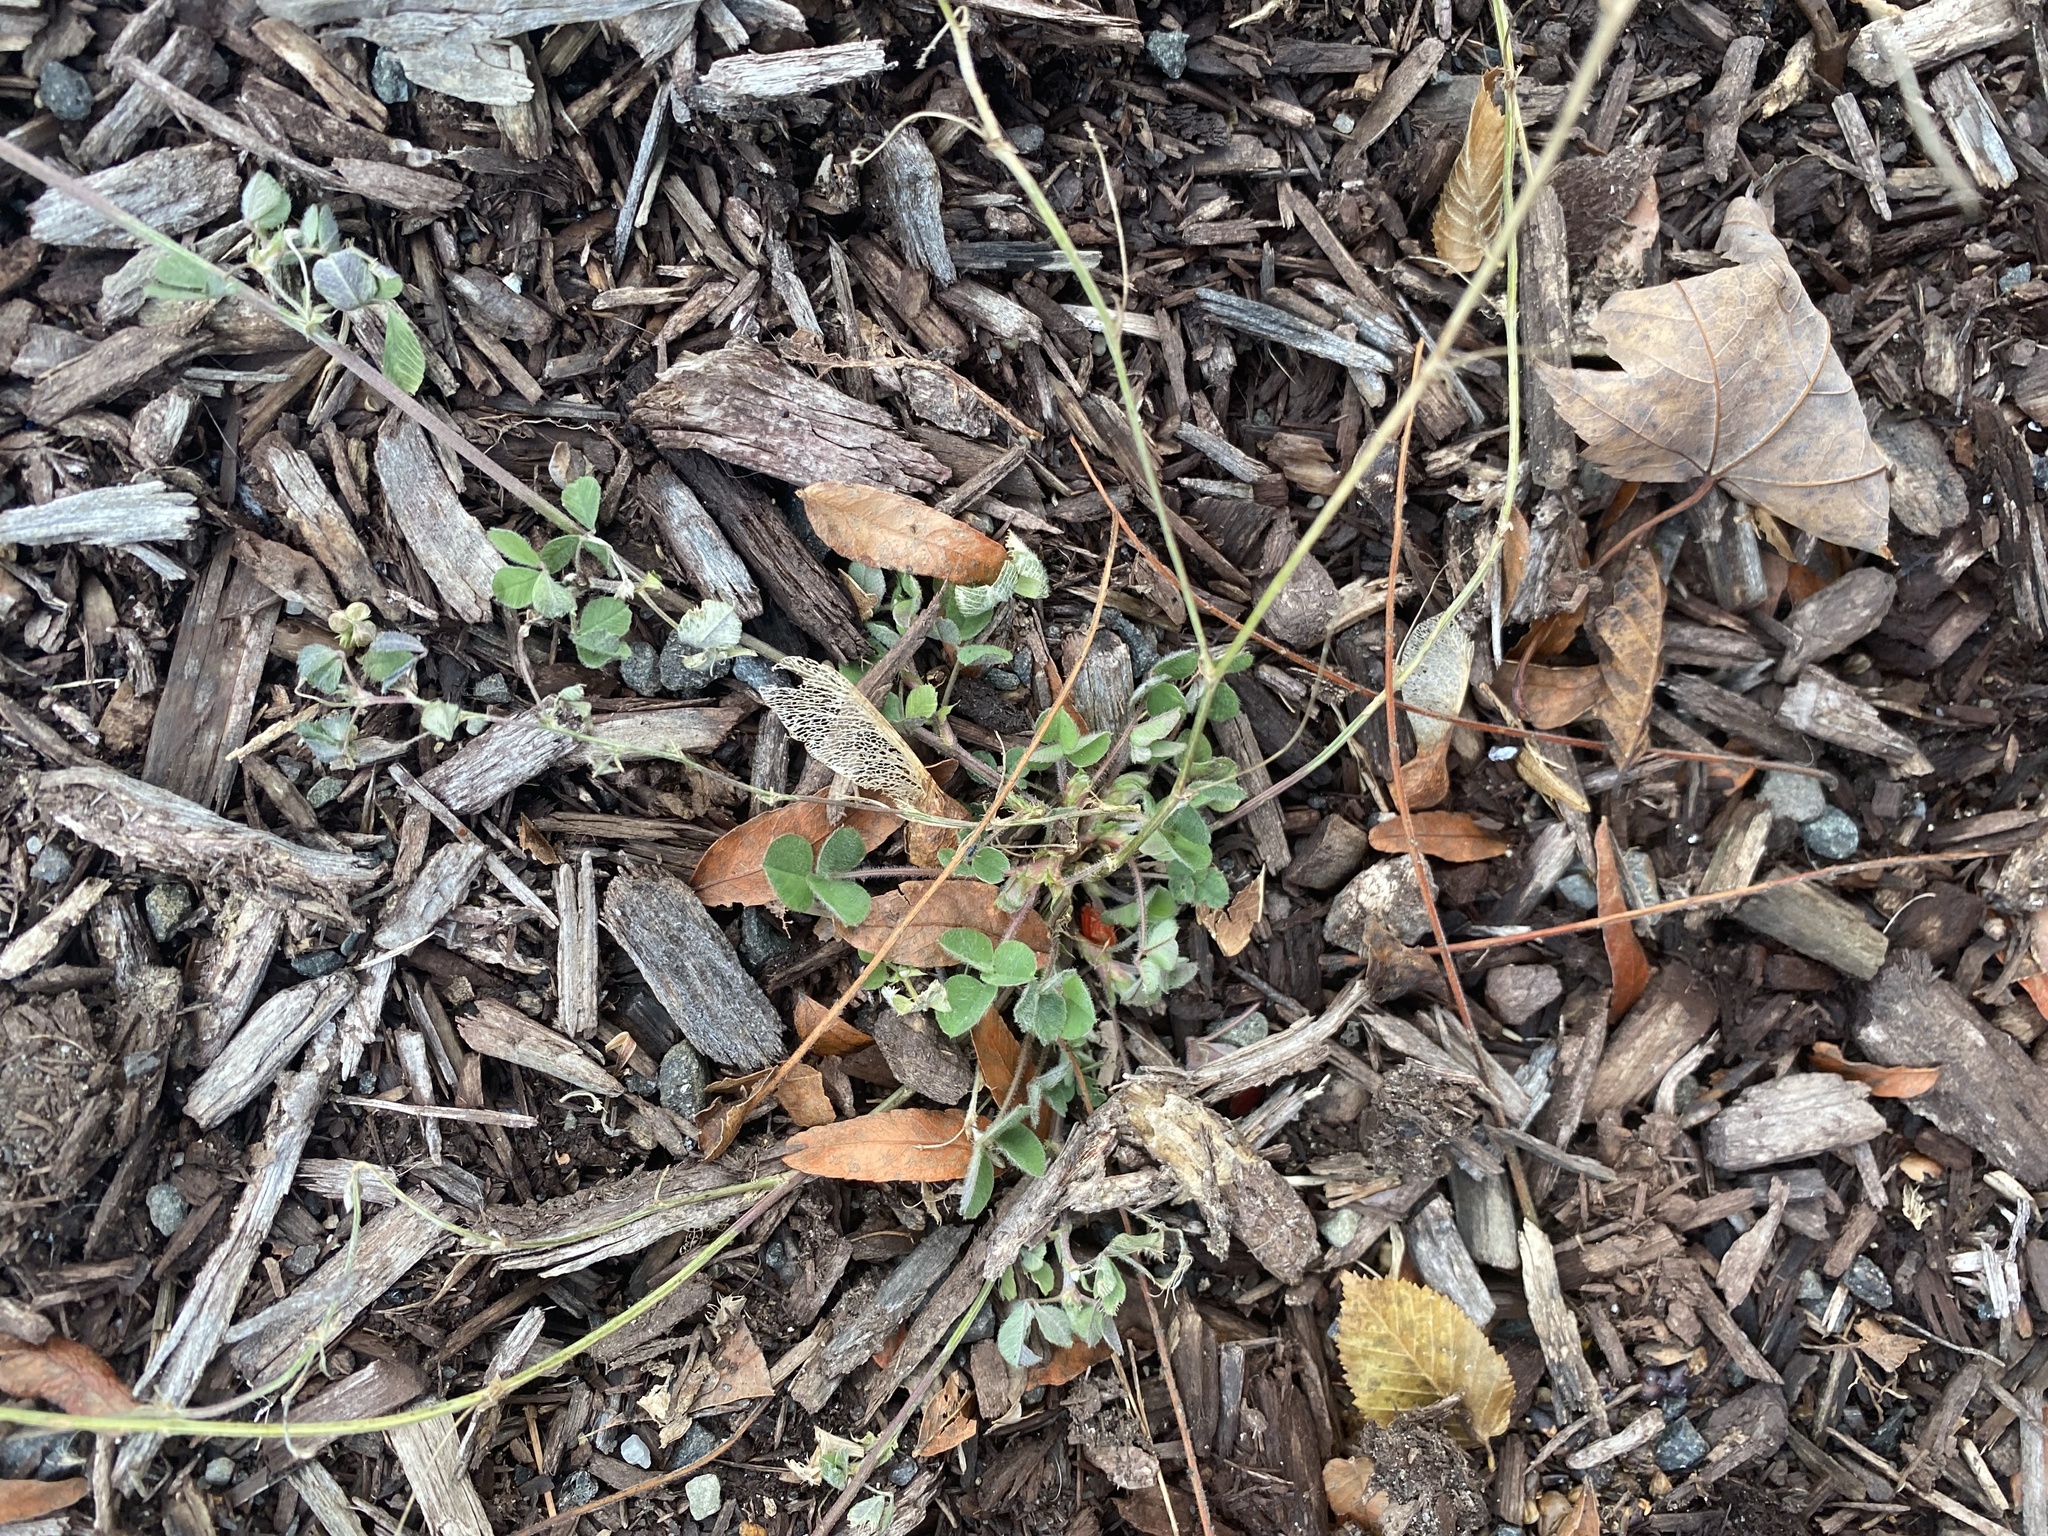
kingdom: Plantae
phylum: Tracheophyta
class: Magnoliopsida
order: Fabales
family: Fabaceae
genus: Medicago
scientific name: Medicago lupulina
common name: Black medick
